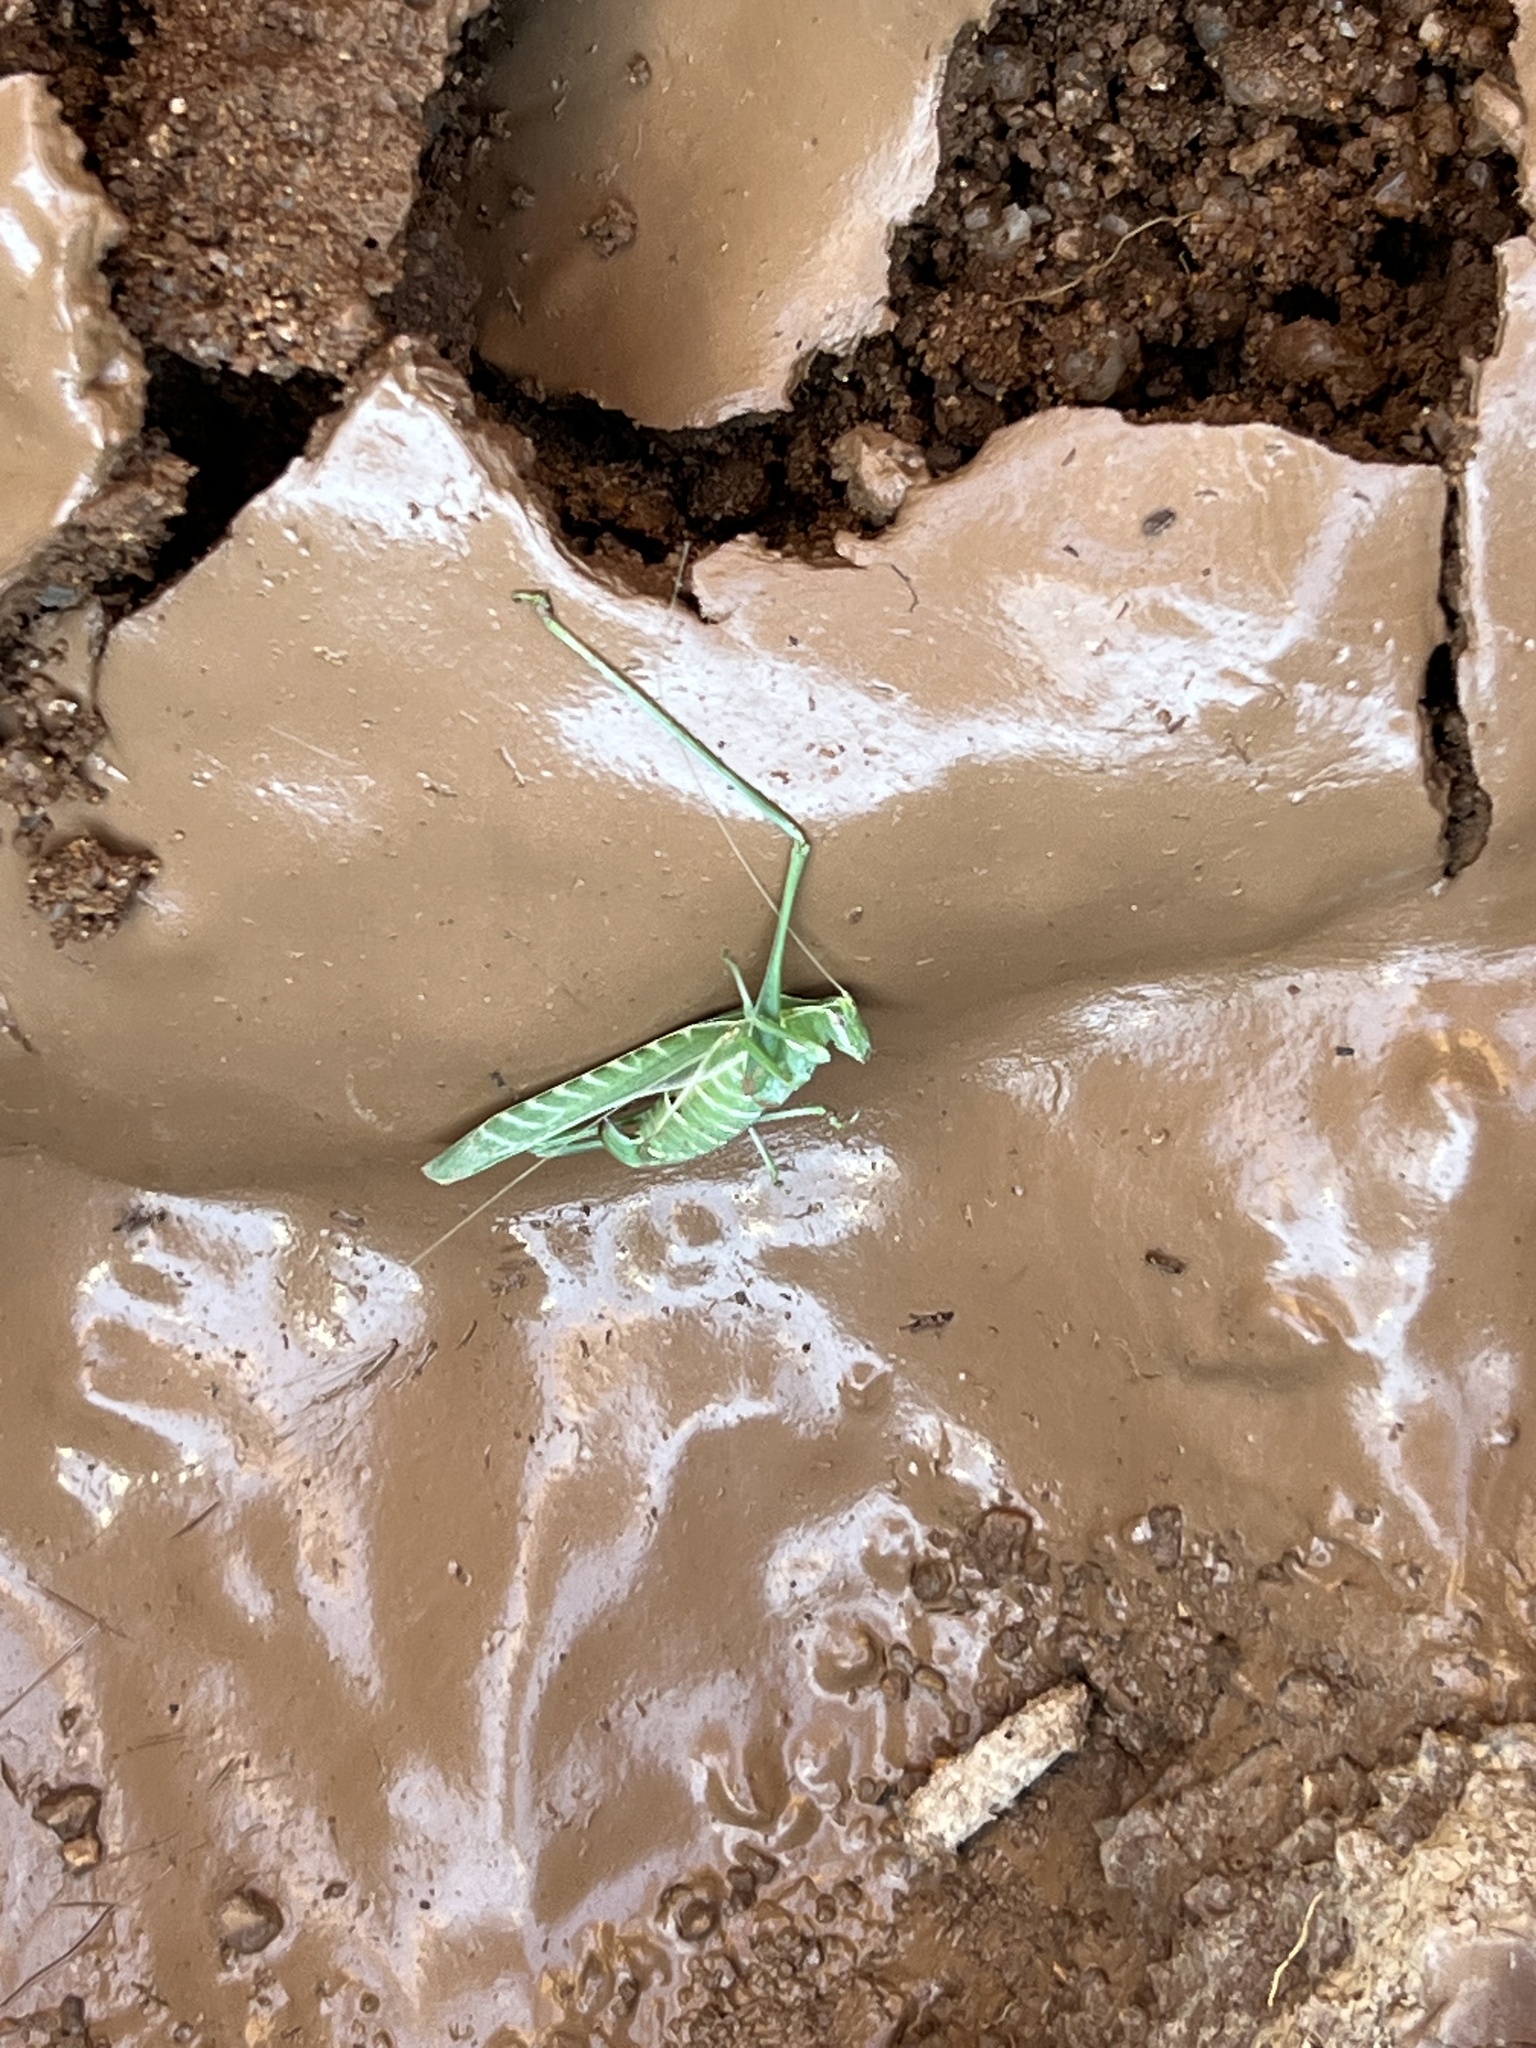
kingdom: Animalia
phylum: Arthropoda
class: Insecta
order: Orthoptera
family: Tettigoniidae
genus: Insara
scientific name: Insara elegans
